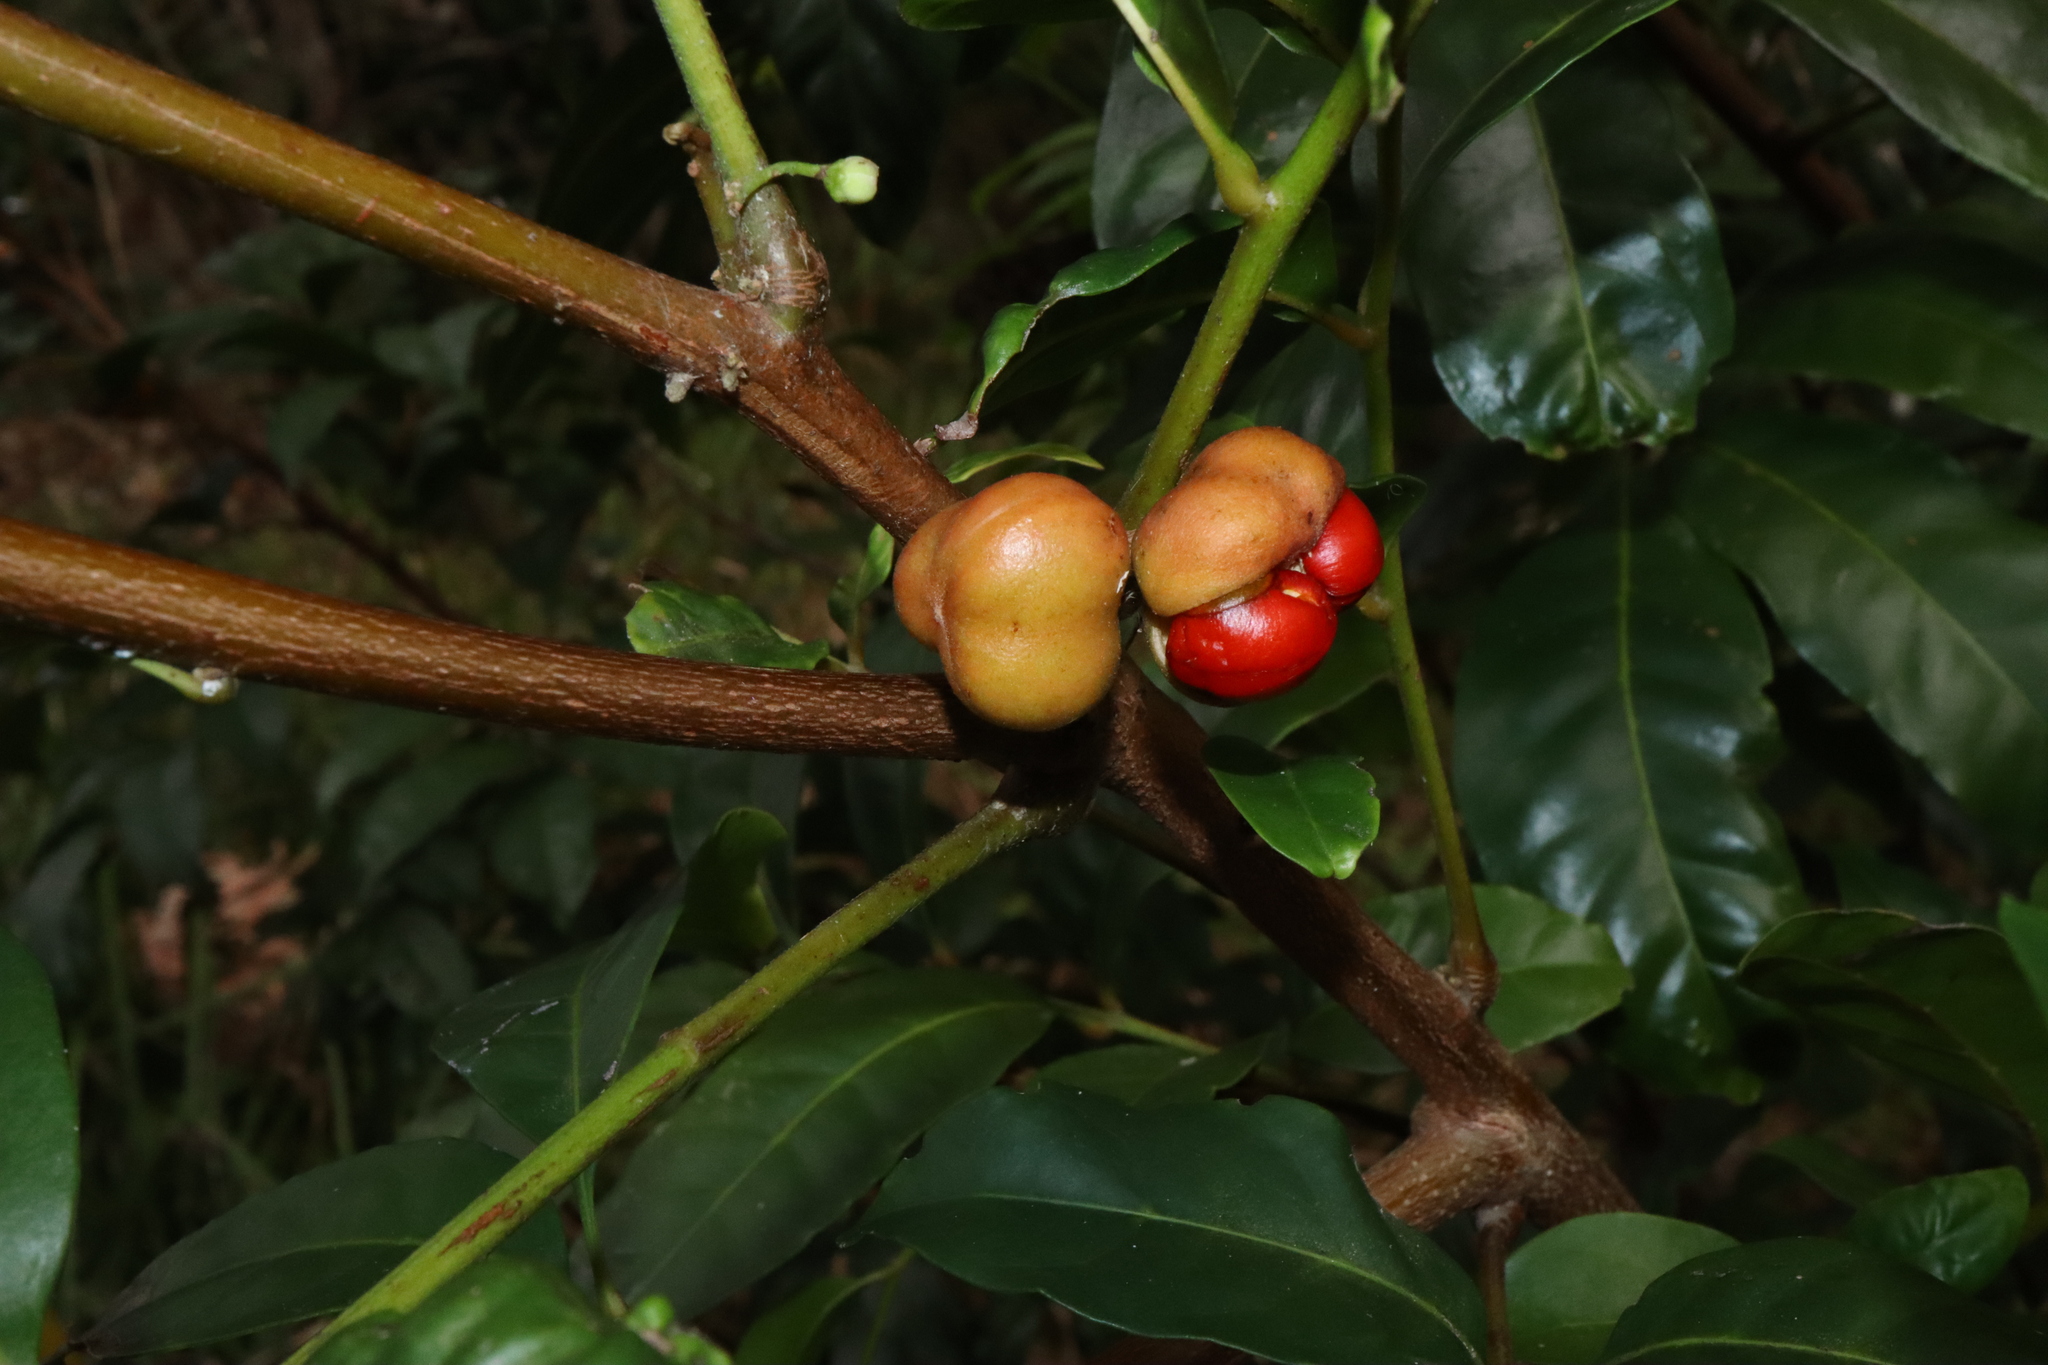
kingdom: Plantae
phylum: Tracheophyta
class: Magnoliopsida
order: Sapindales
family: Meliaceae
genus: Synoum
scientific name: Synoum glandulosum
